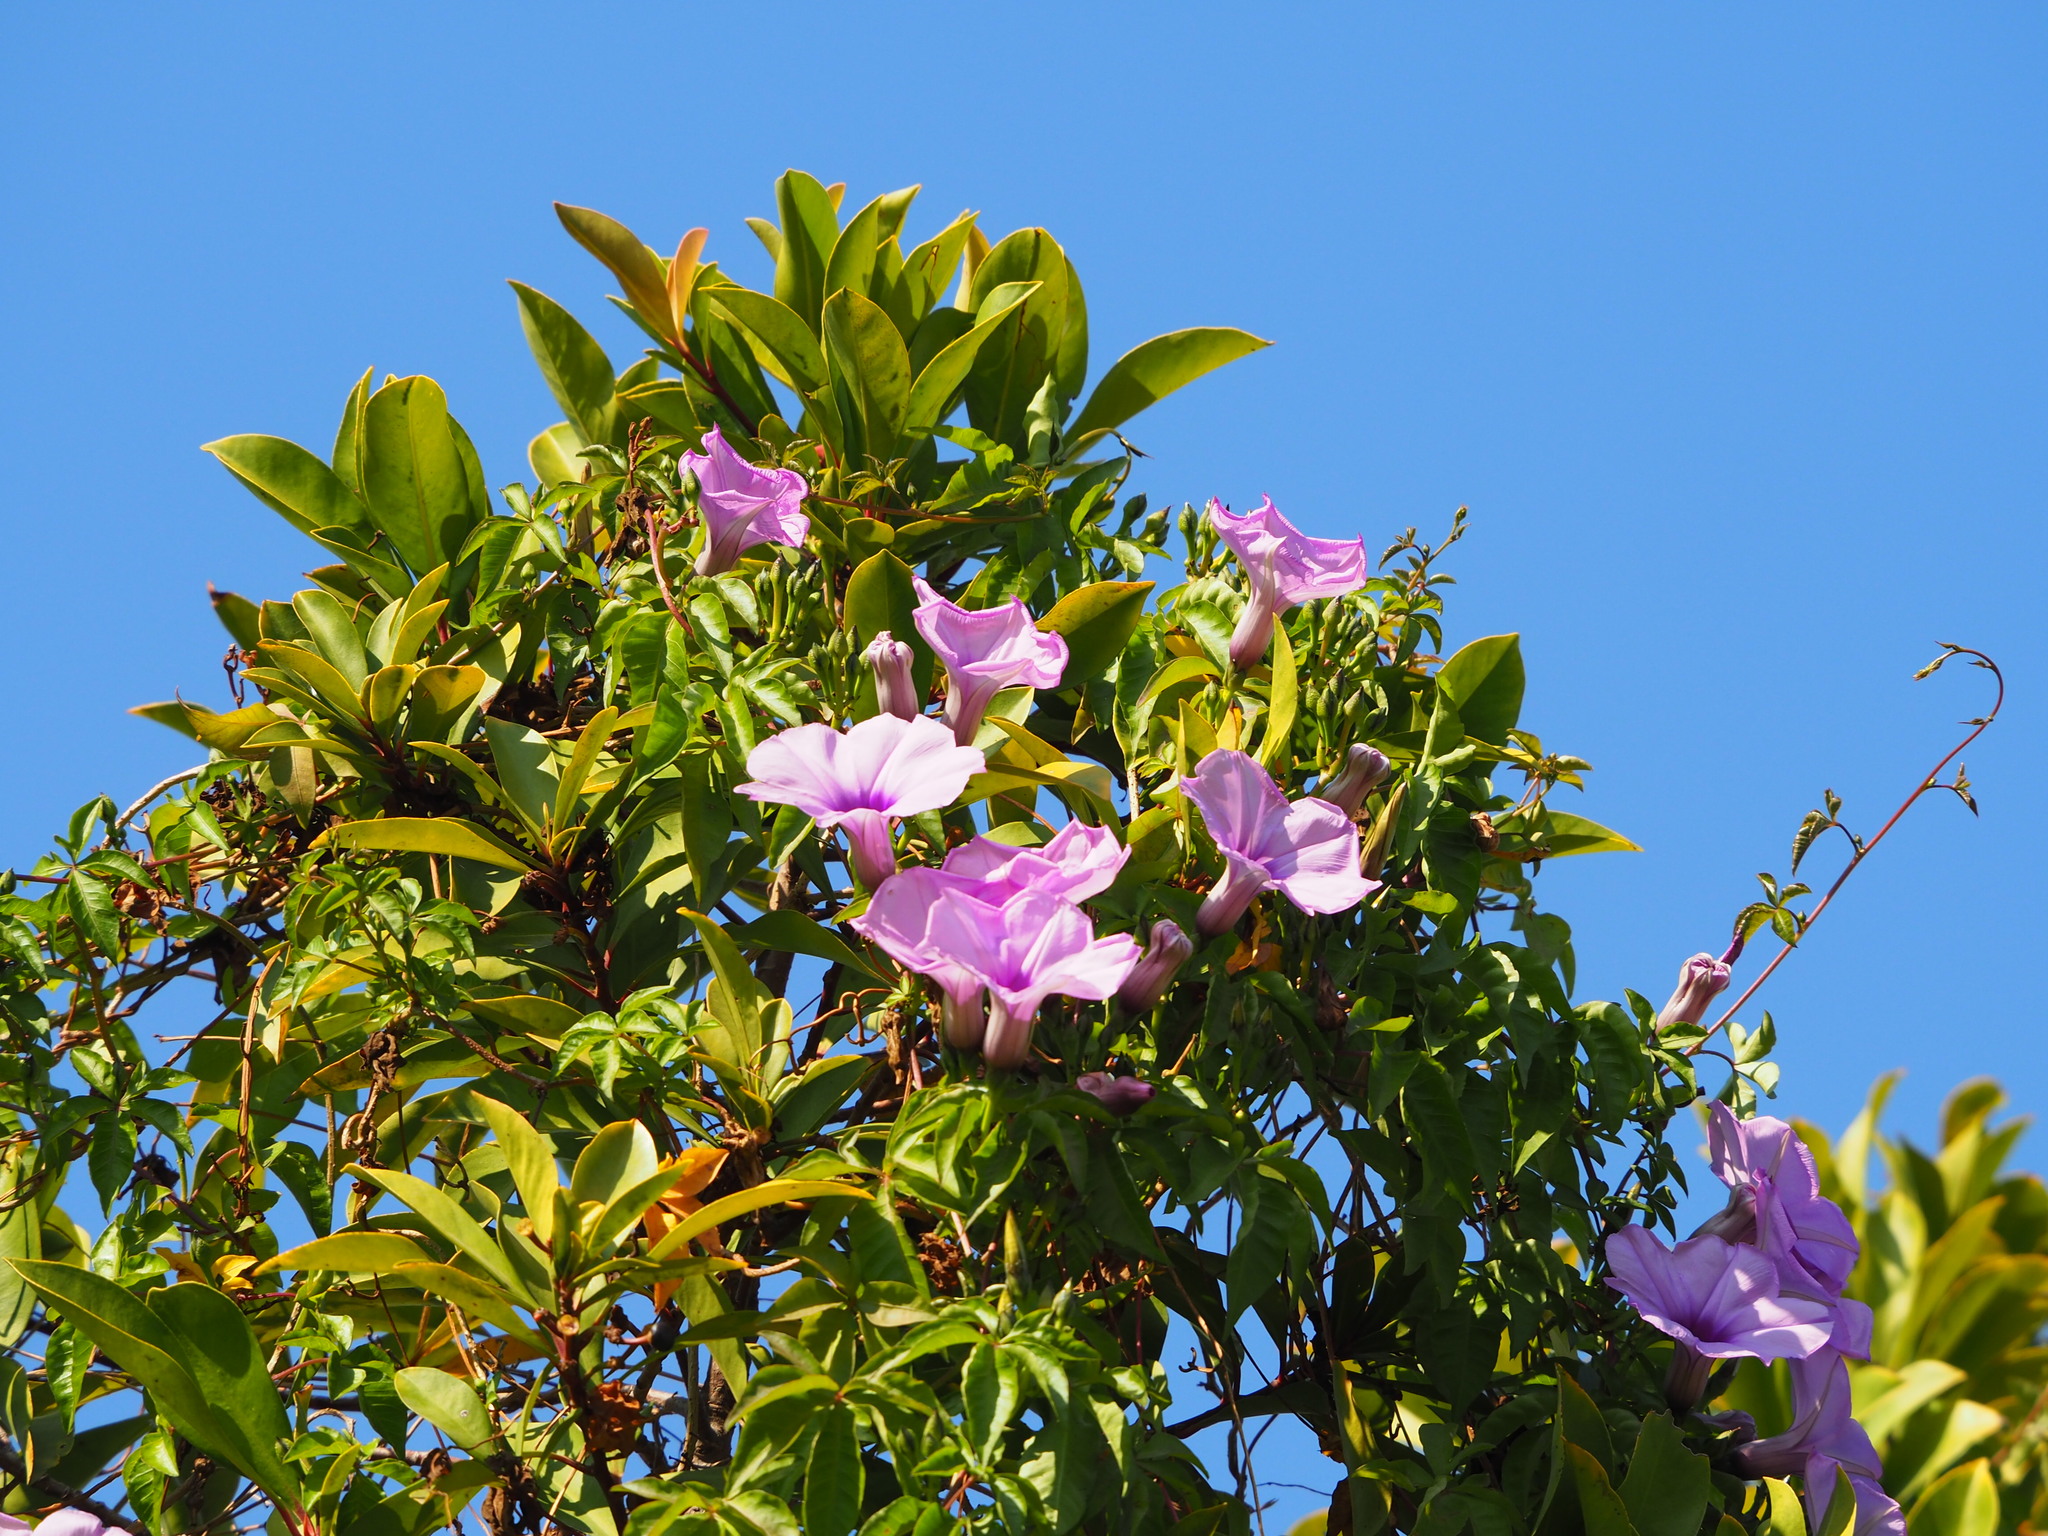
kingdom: Plantae
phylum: Tracheophyta
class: Magnoliopsida
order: Solanales
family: Convolvulaceae
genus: Ipomoea
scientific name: Ipomoea cairica
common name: Mile a minute vine
